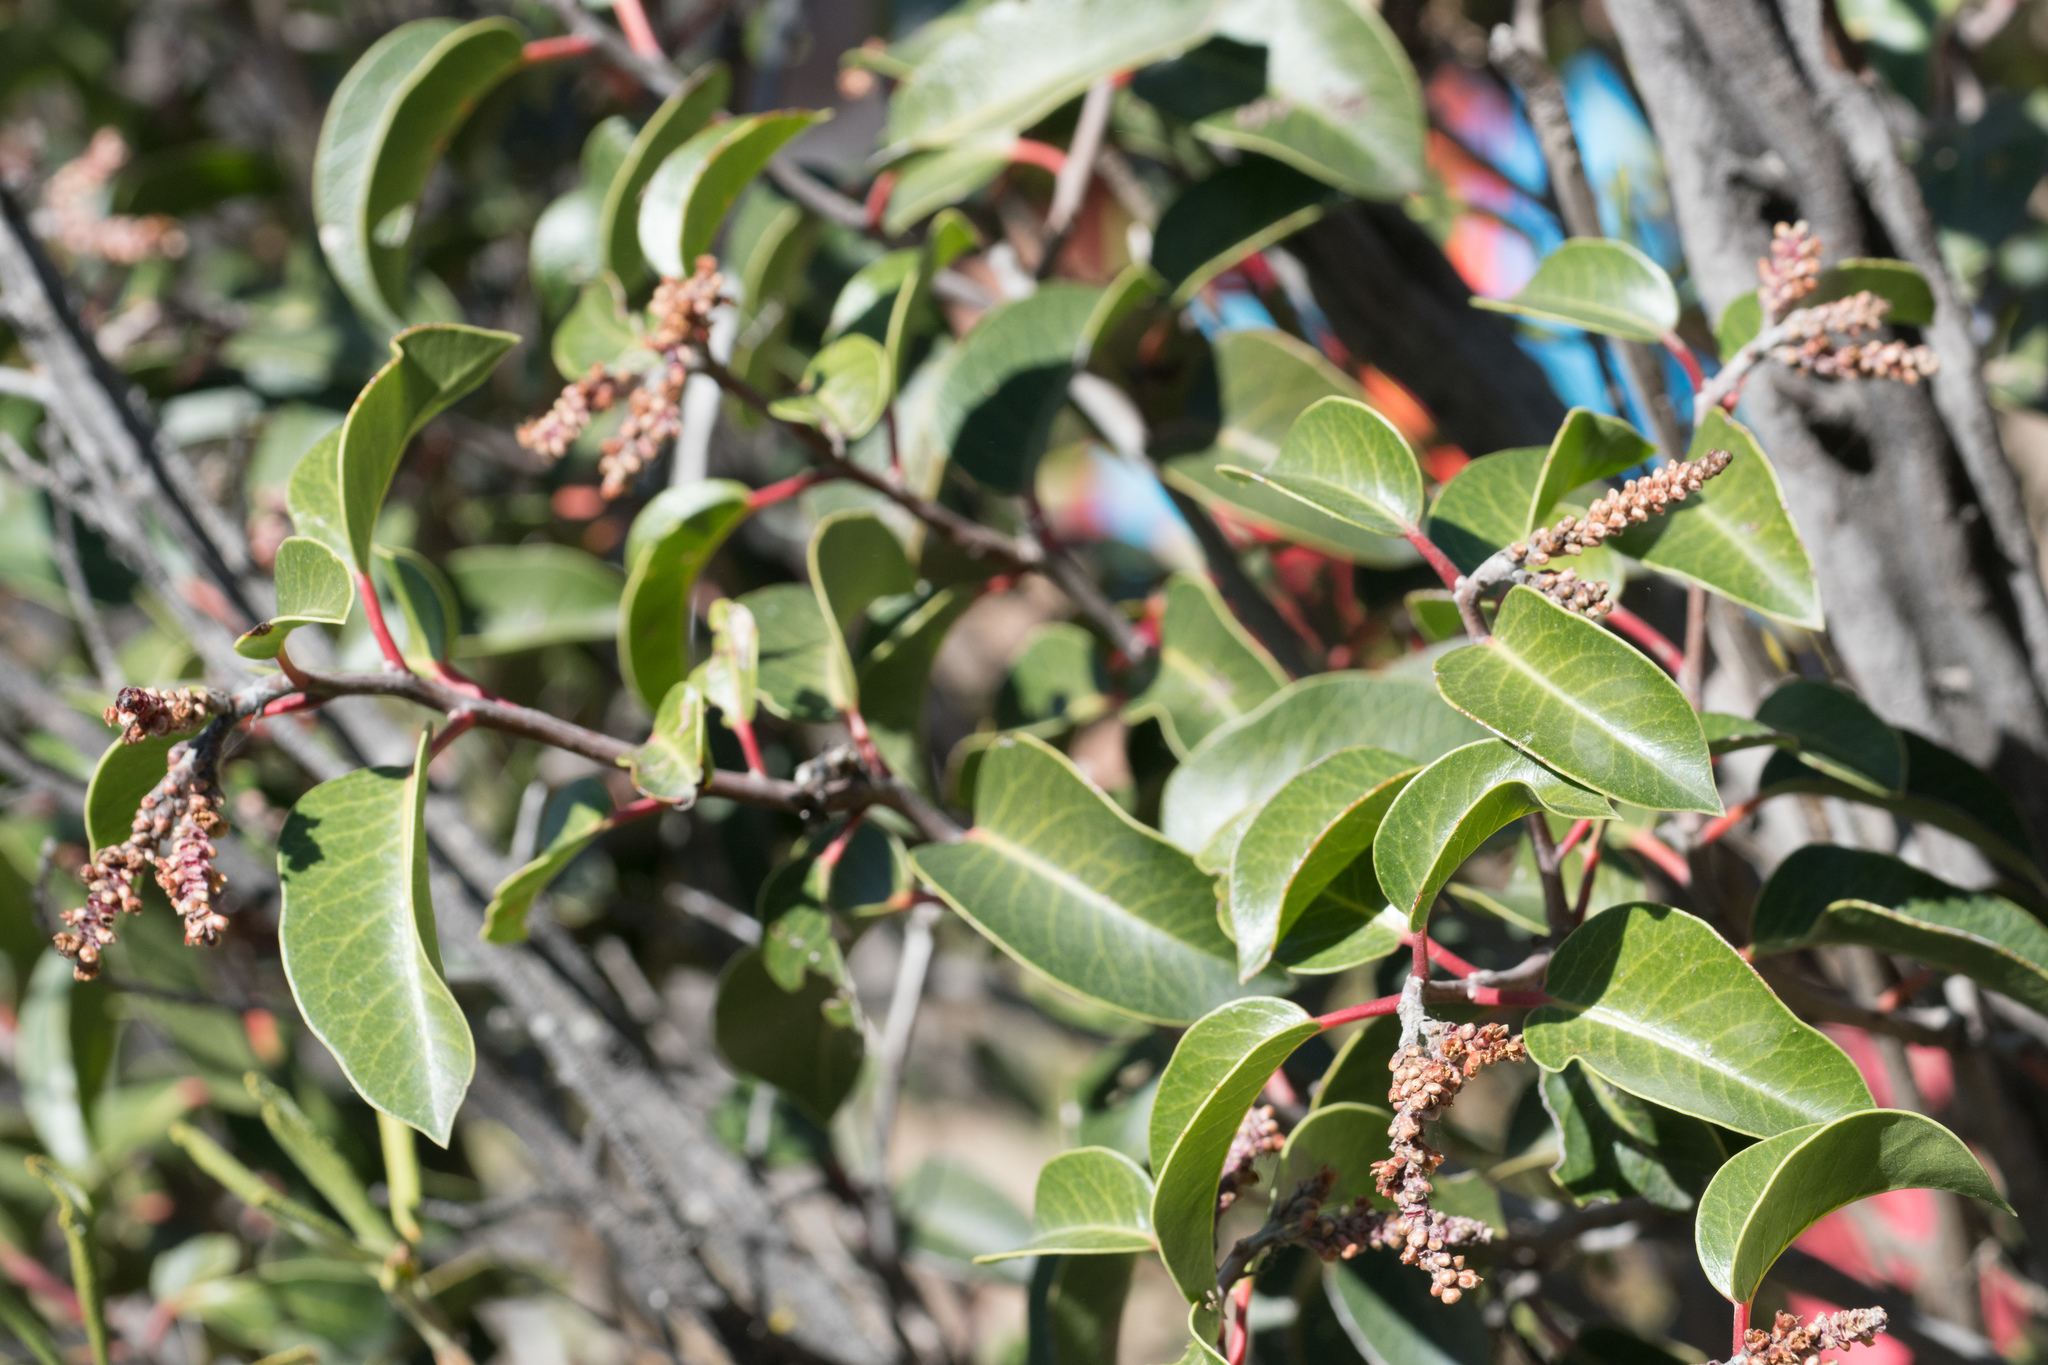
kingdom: Plantae
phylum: Tracheophyta
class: Magnoliopsida
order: Sapindales
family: Anacardiaceae
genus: Rhus
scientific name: Rhus ovata
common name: Sugar sumac
